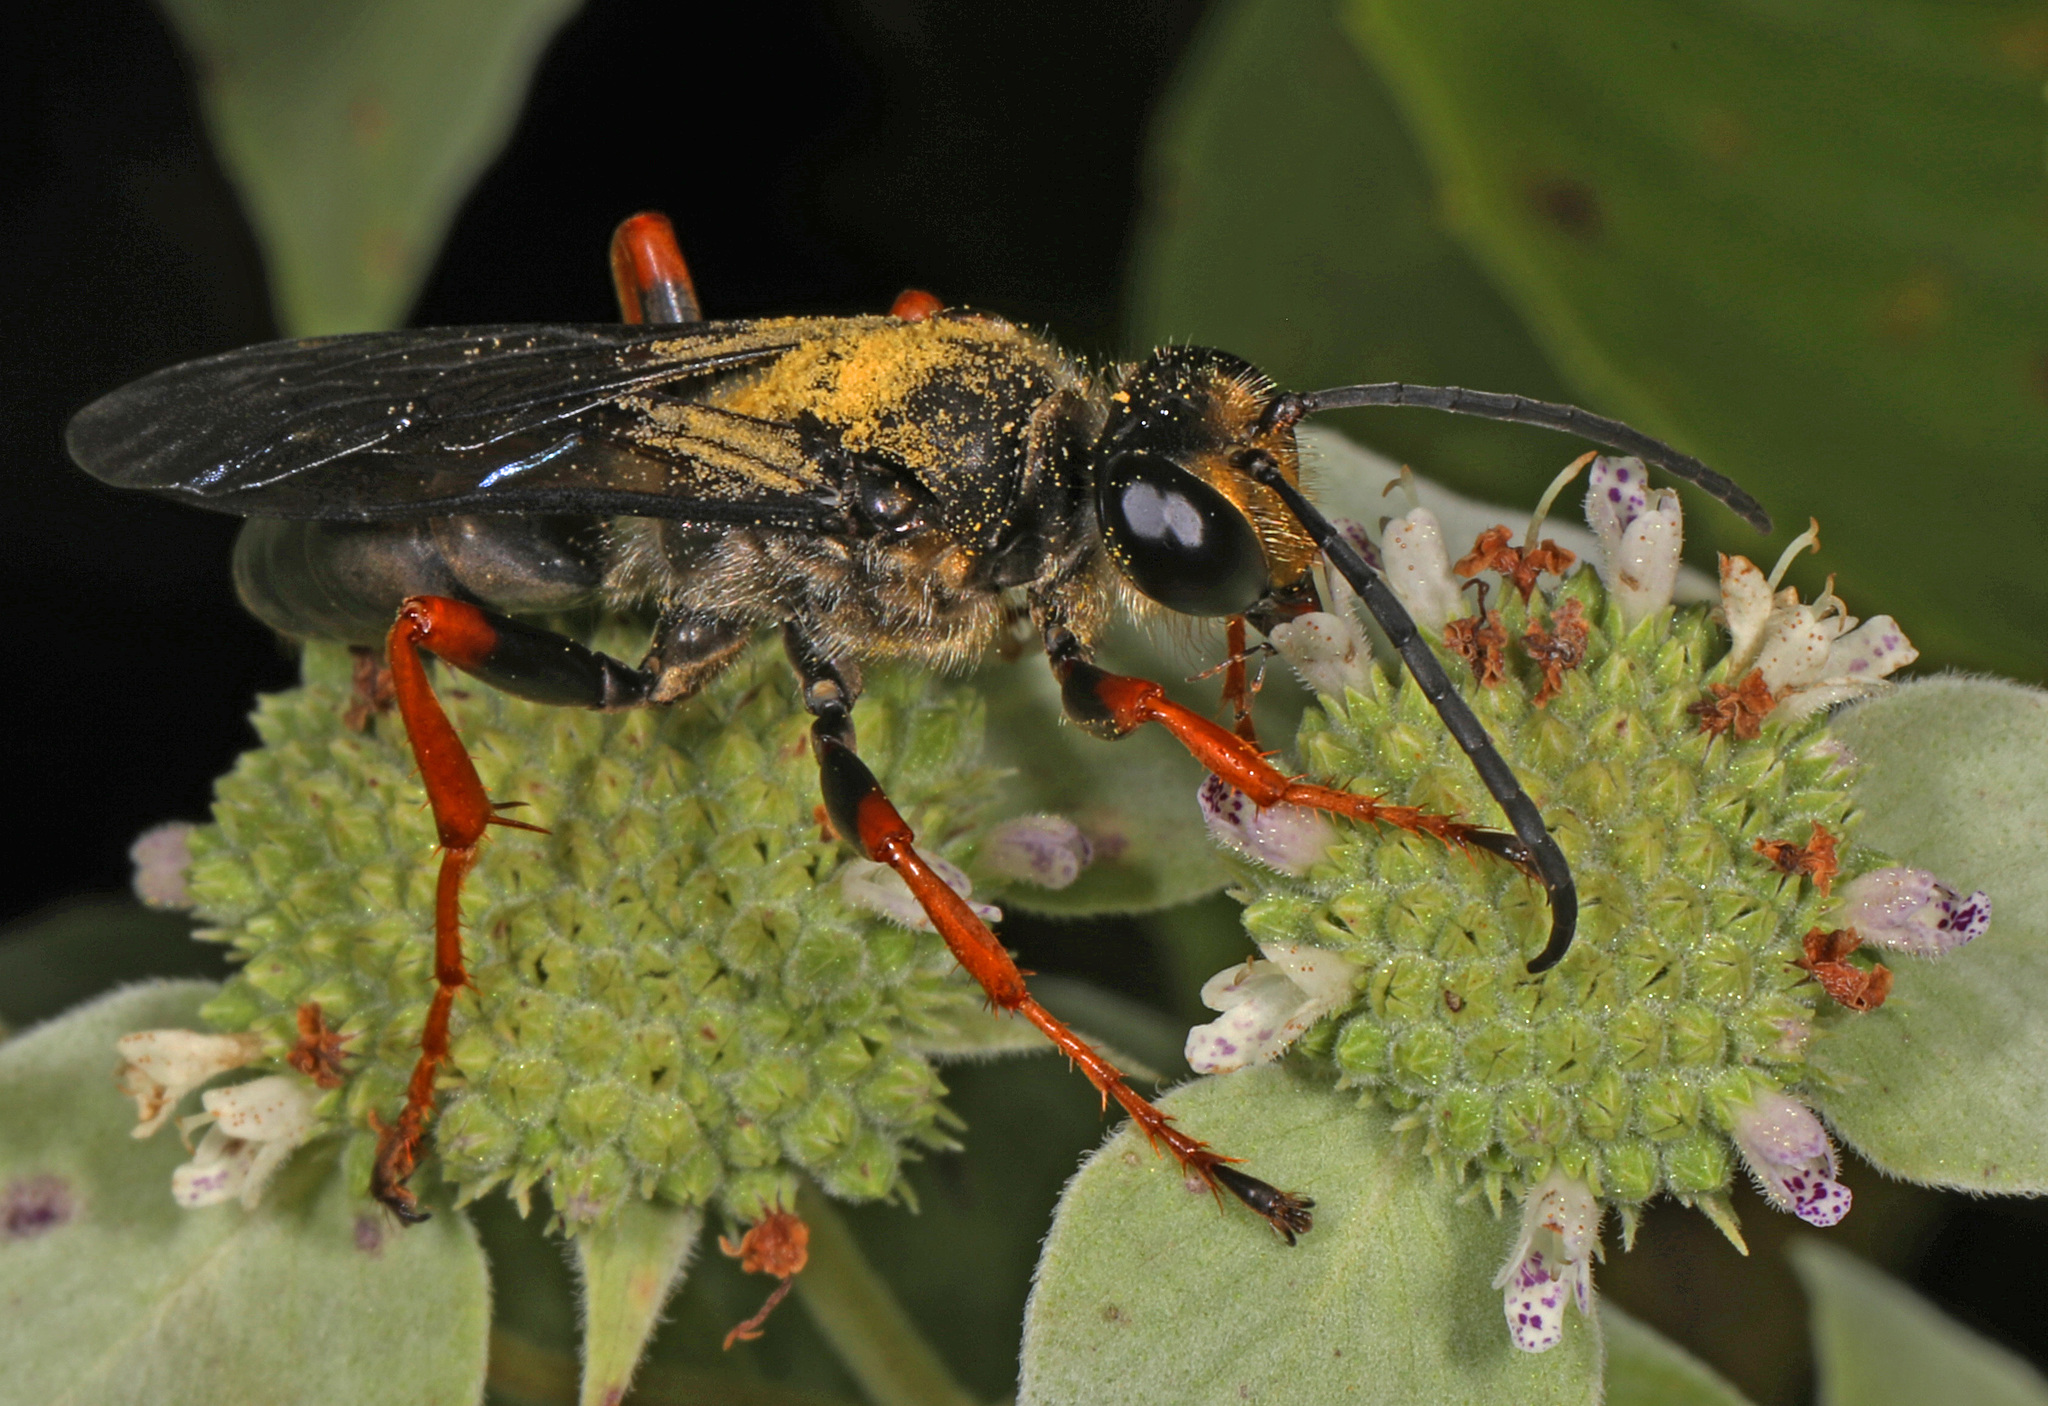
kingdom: Animalia
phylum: Arthropoda
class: Insecta
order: Hymenoptera
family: Sphecidae
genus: Sphex
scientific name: Sphex nudus
